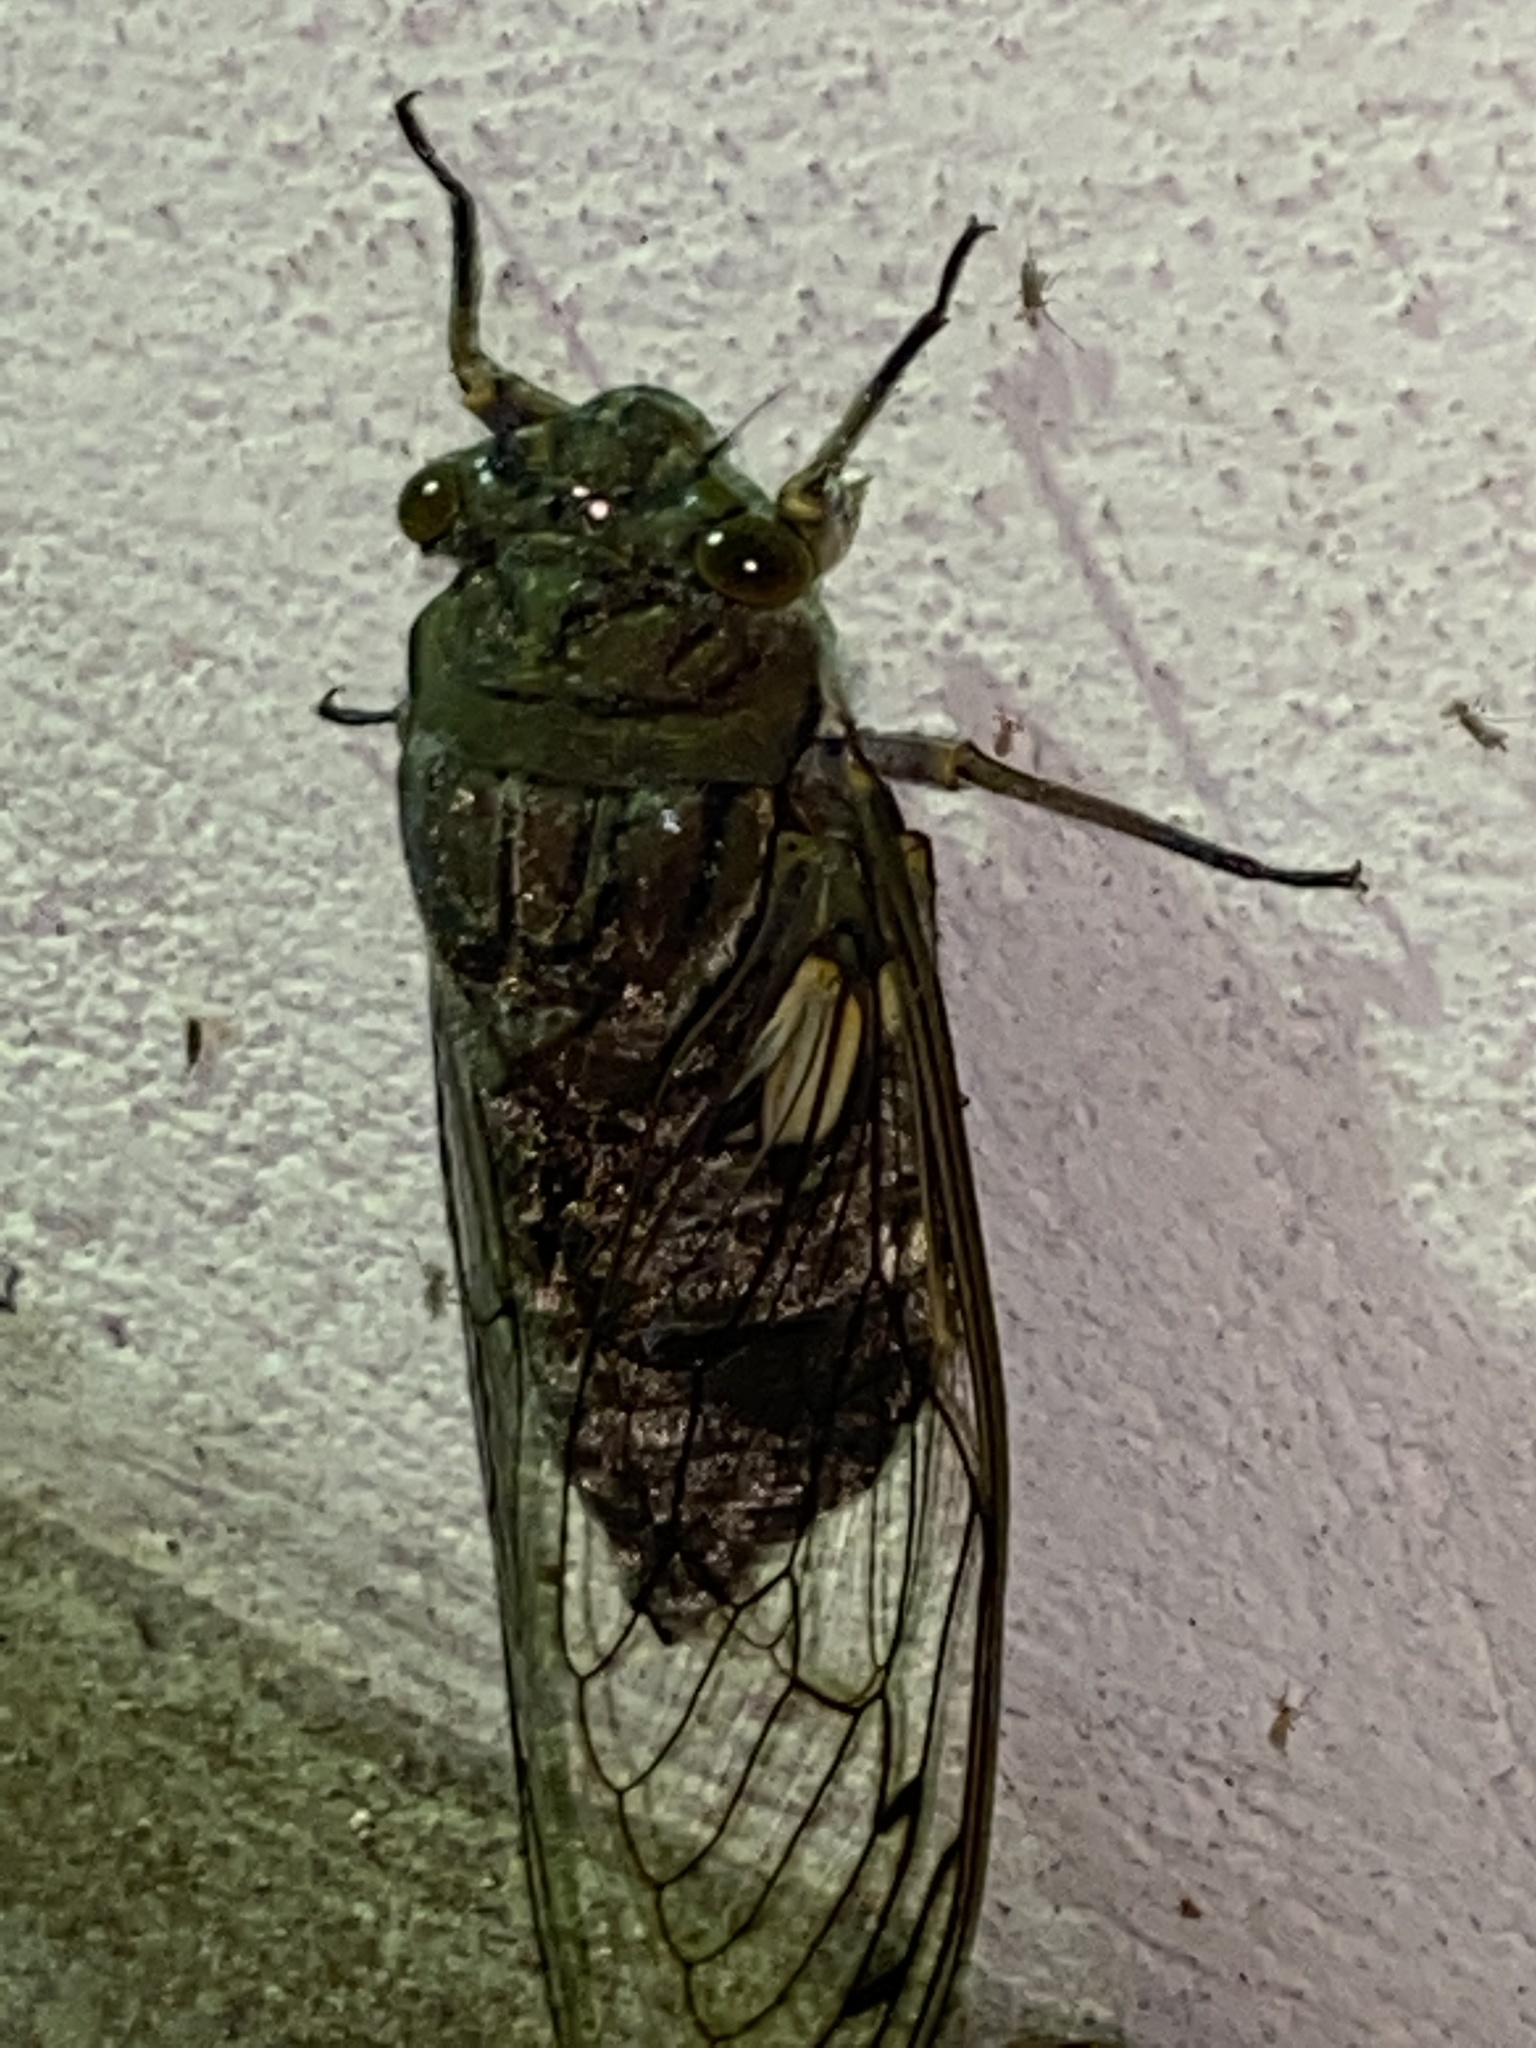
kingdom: Animalia
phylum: Arthropoda
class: Insecta
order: Hemiptera
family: Cicadidae
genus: Quesada
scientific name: Quesada gigas
